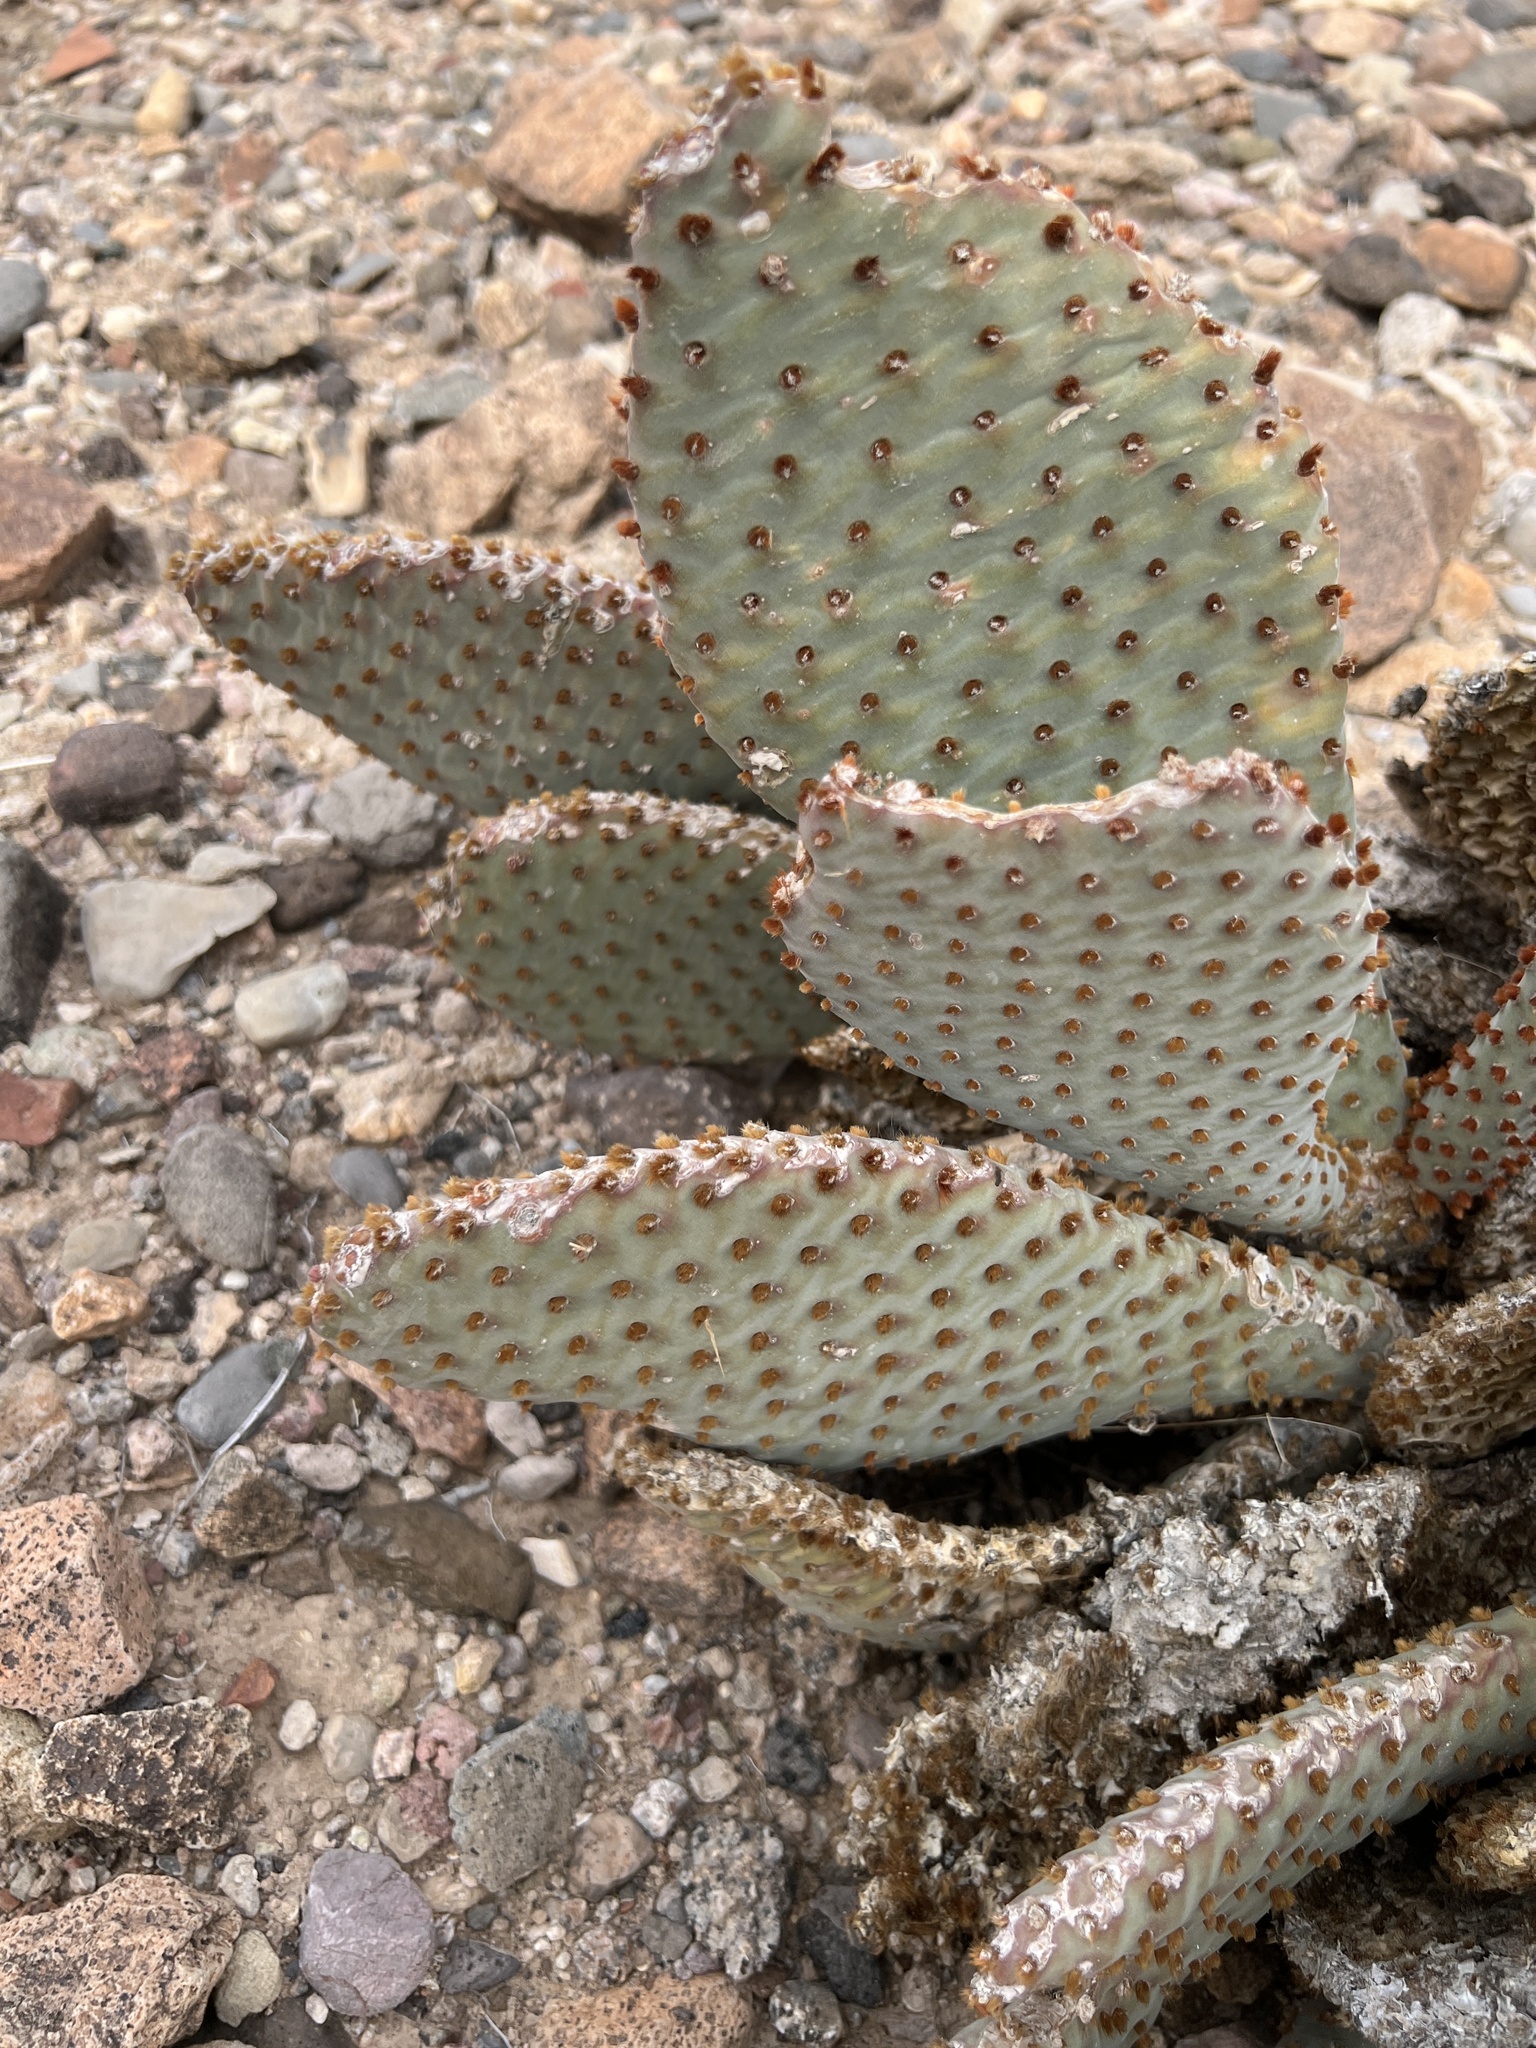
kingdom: Plantae
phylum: Tracheophyta
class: Magnoliopsida
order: Caryophyllales
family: Cactaceae
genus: Opuntia
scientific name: Opuntia basilaris
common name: Beavertail prickly-pear
